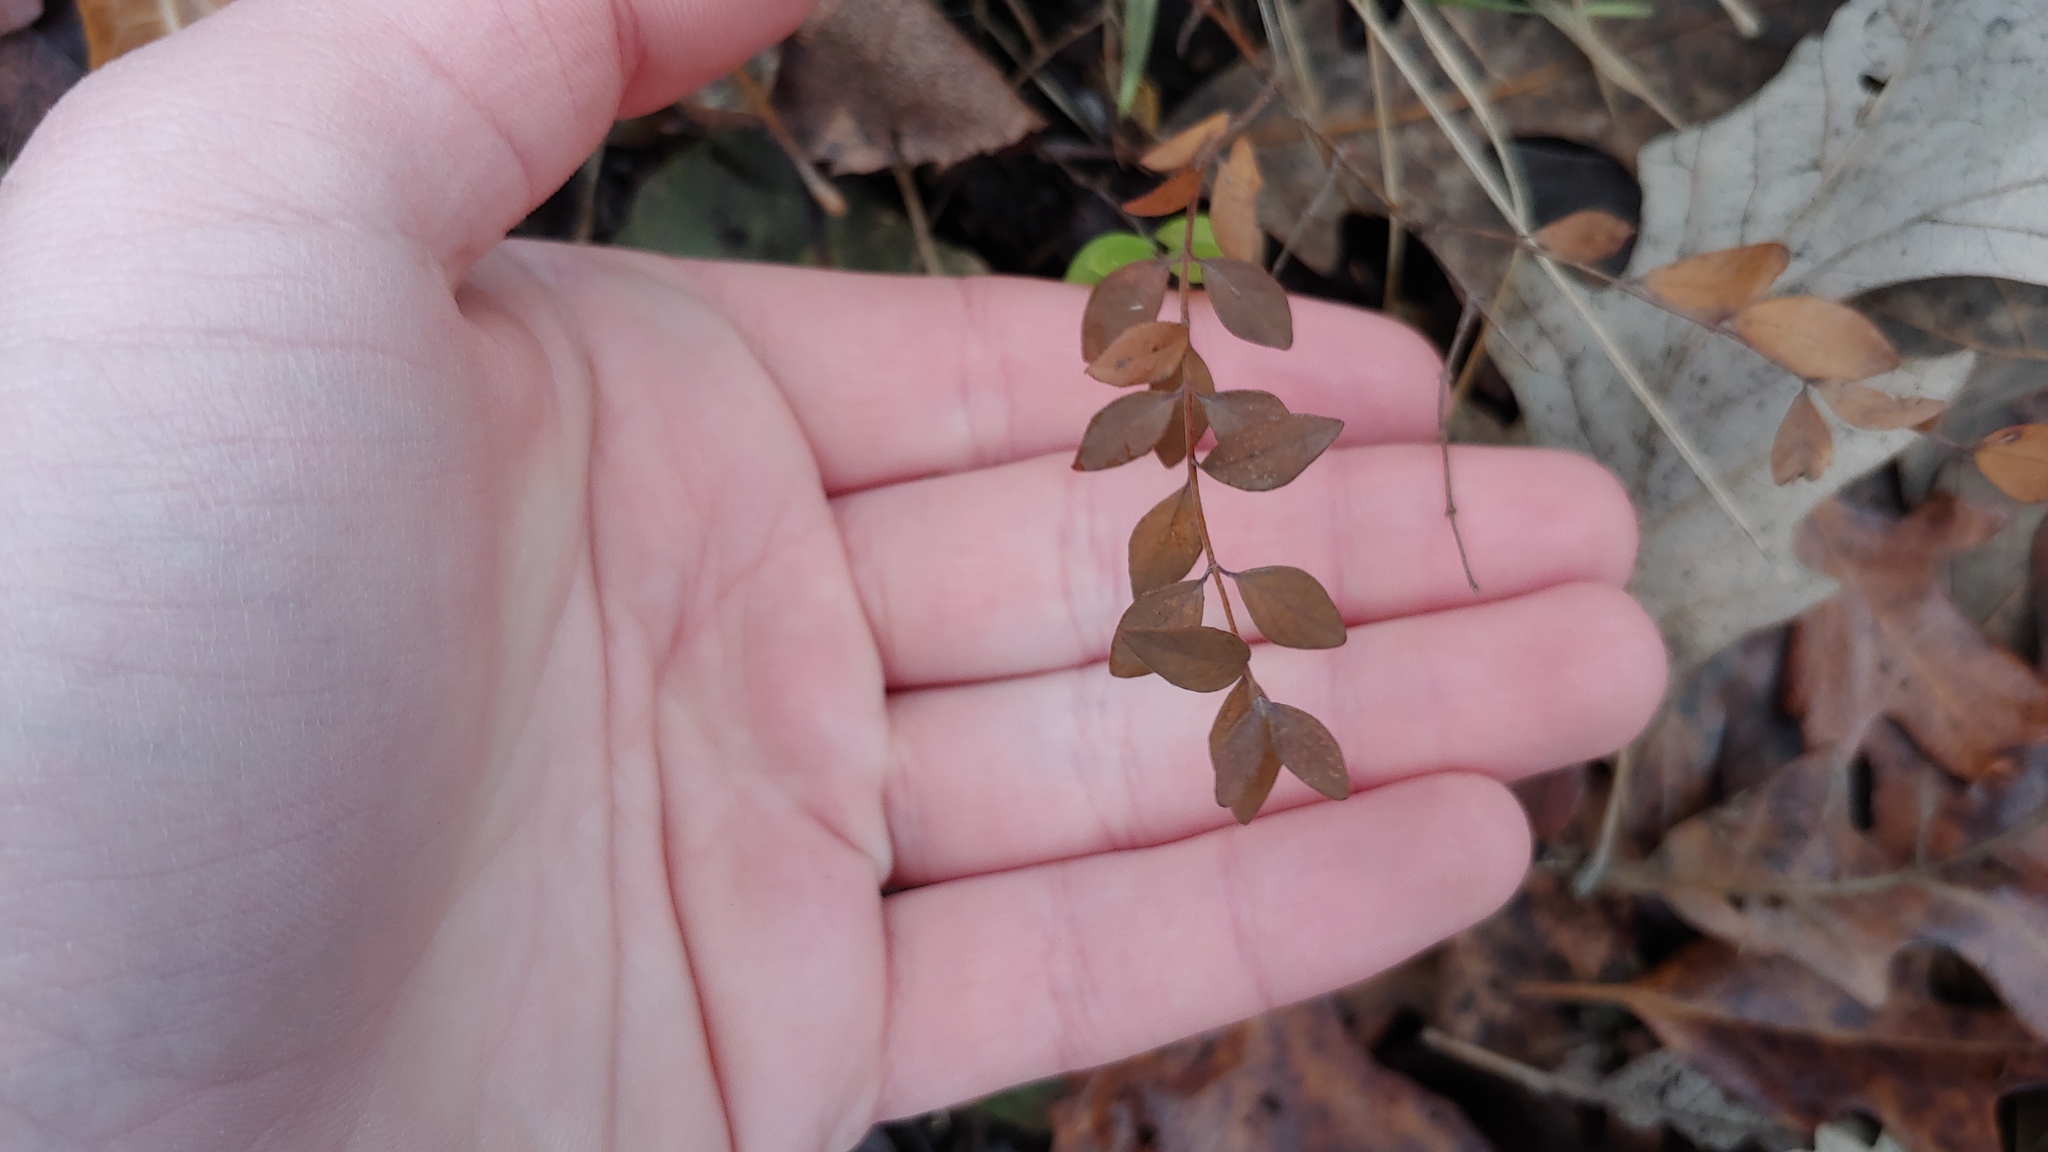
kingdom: Plantae
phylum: Tracheophyta
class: Magnoliopsida
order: Dipsacales
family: Caprifoliaceae
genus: Symphoricarpos
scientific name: Symphoricarpos orbiculatus
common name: Coralberry
